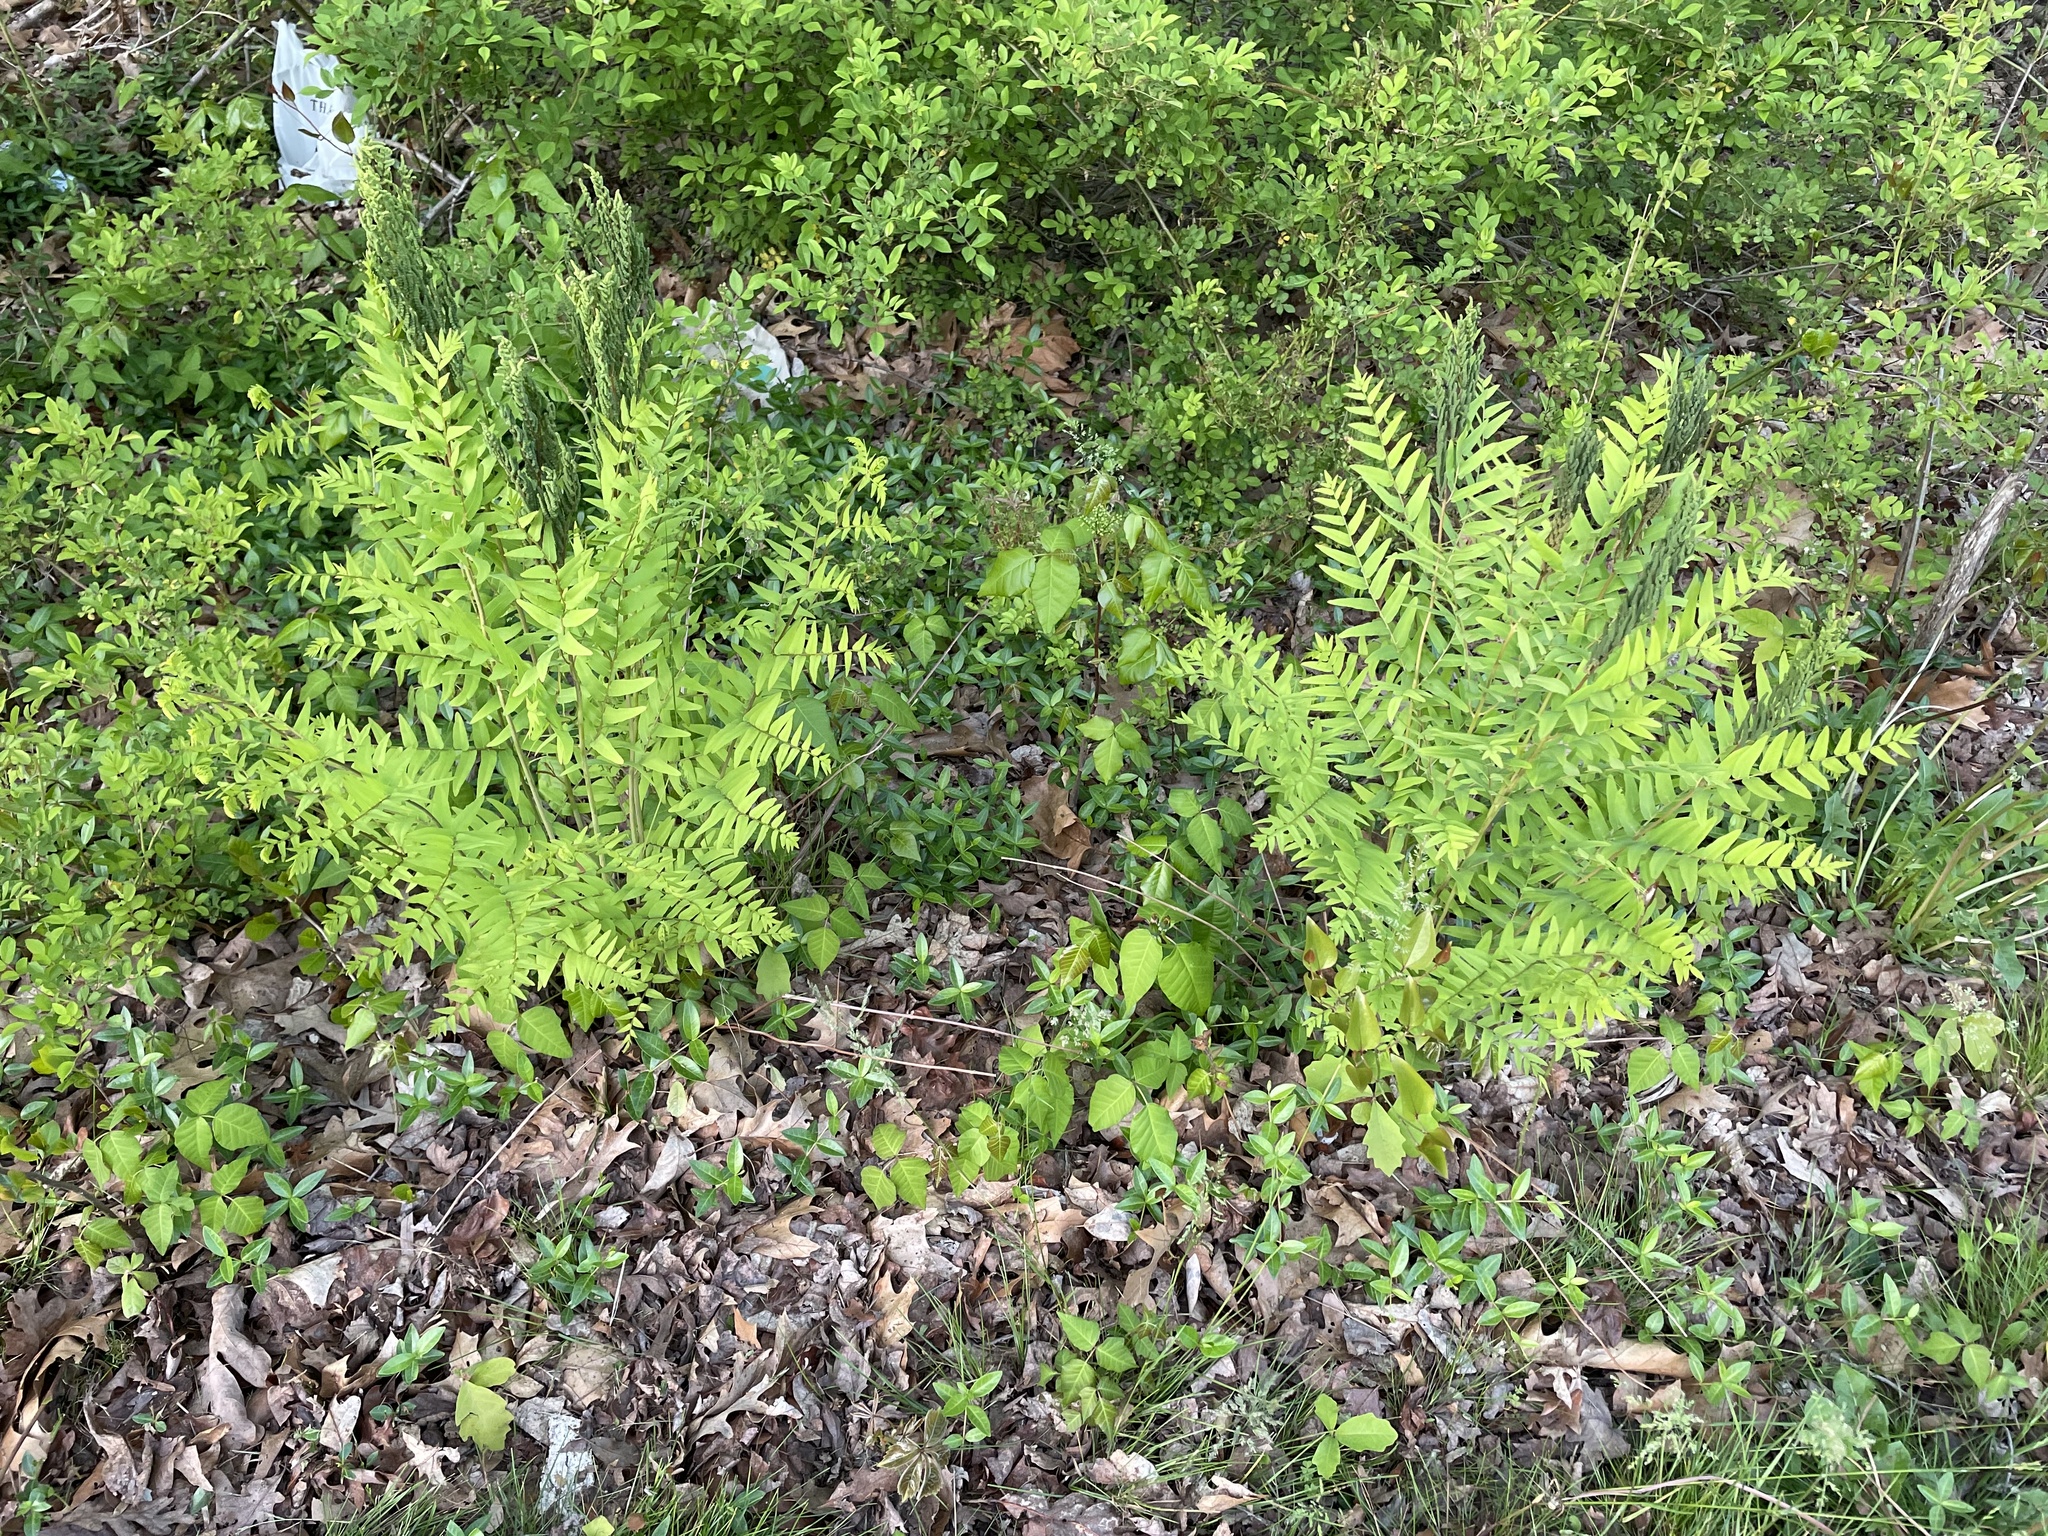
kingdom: Plantae
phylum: Tracheophyta
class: Polypodiopsida
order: Osmundales
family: Osmundaceae
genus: Osmunda
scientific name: Osmunda spectabilis
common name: American royal fern
